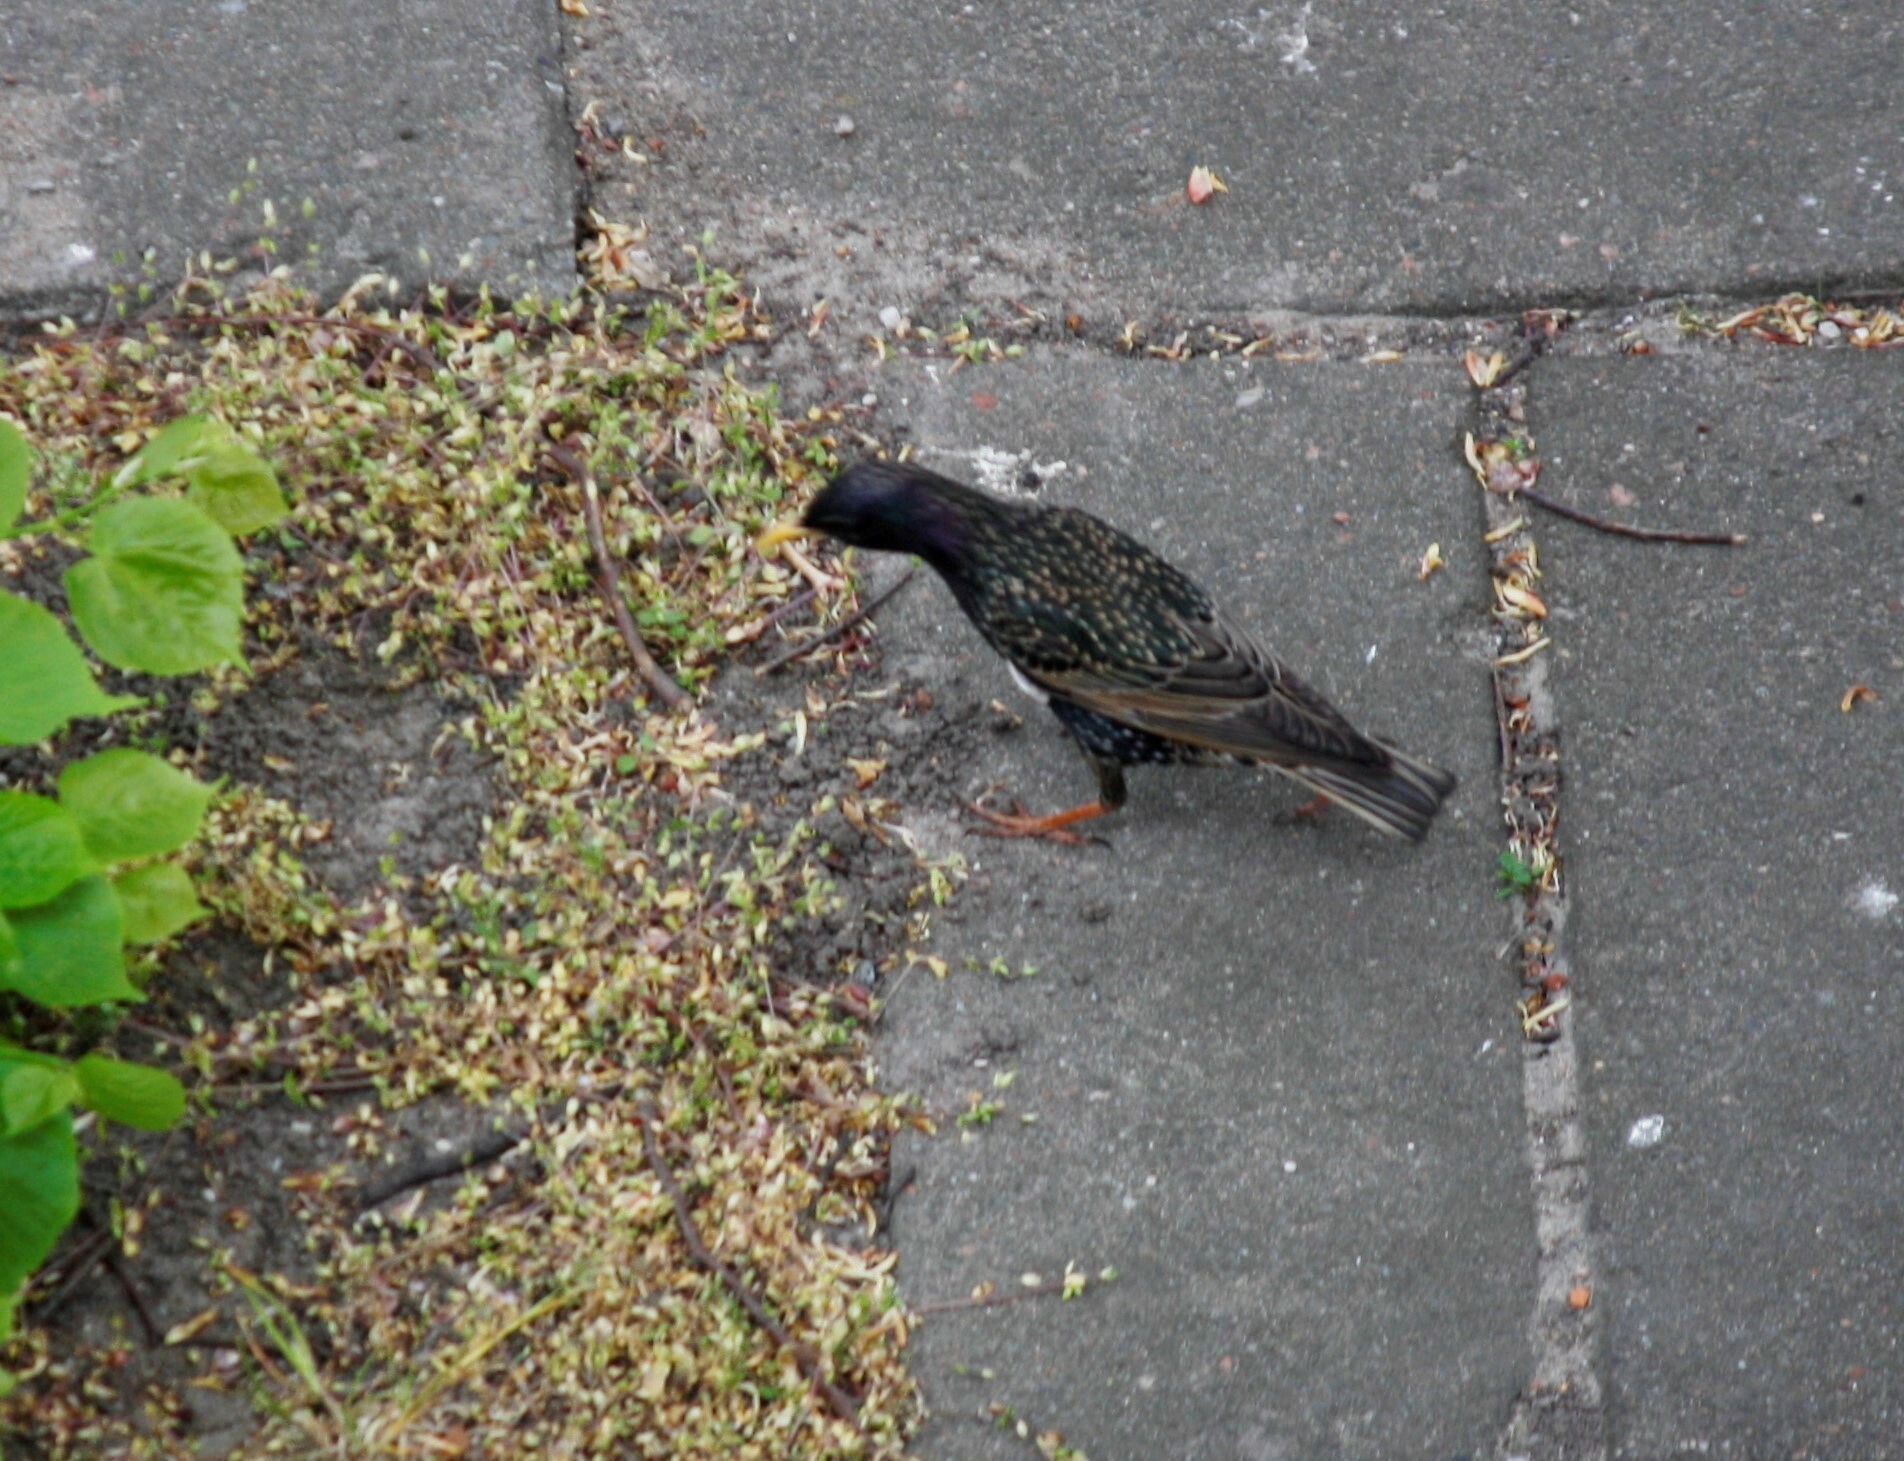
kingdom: Animalia
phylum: Chordata
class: Aves
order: Passeriformes
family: Sturnidae
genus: Sturnus
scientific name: Sturnus vulgaris
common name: Common starling
